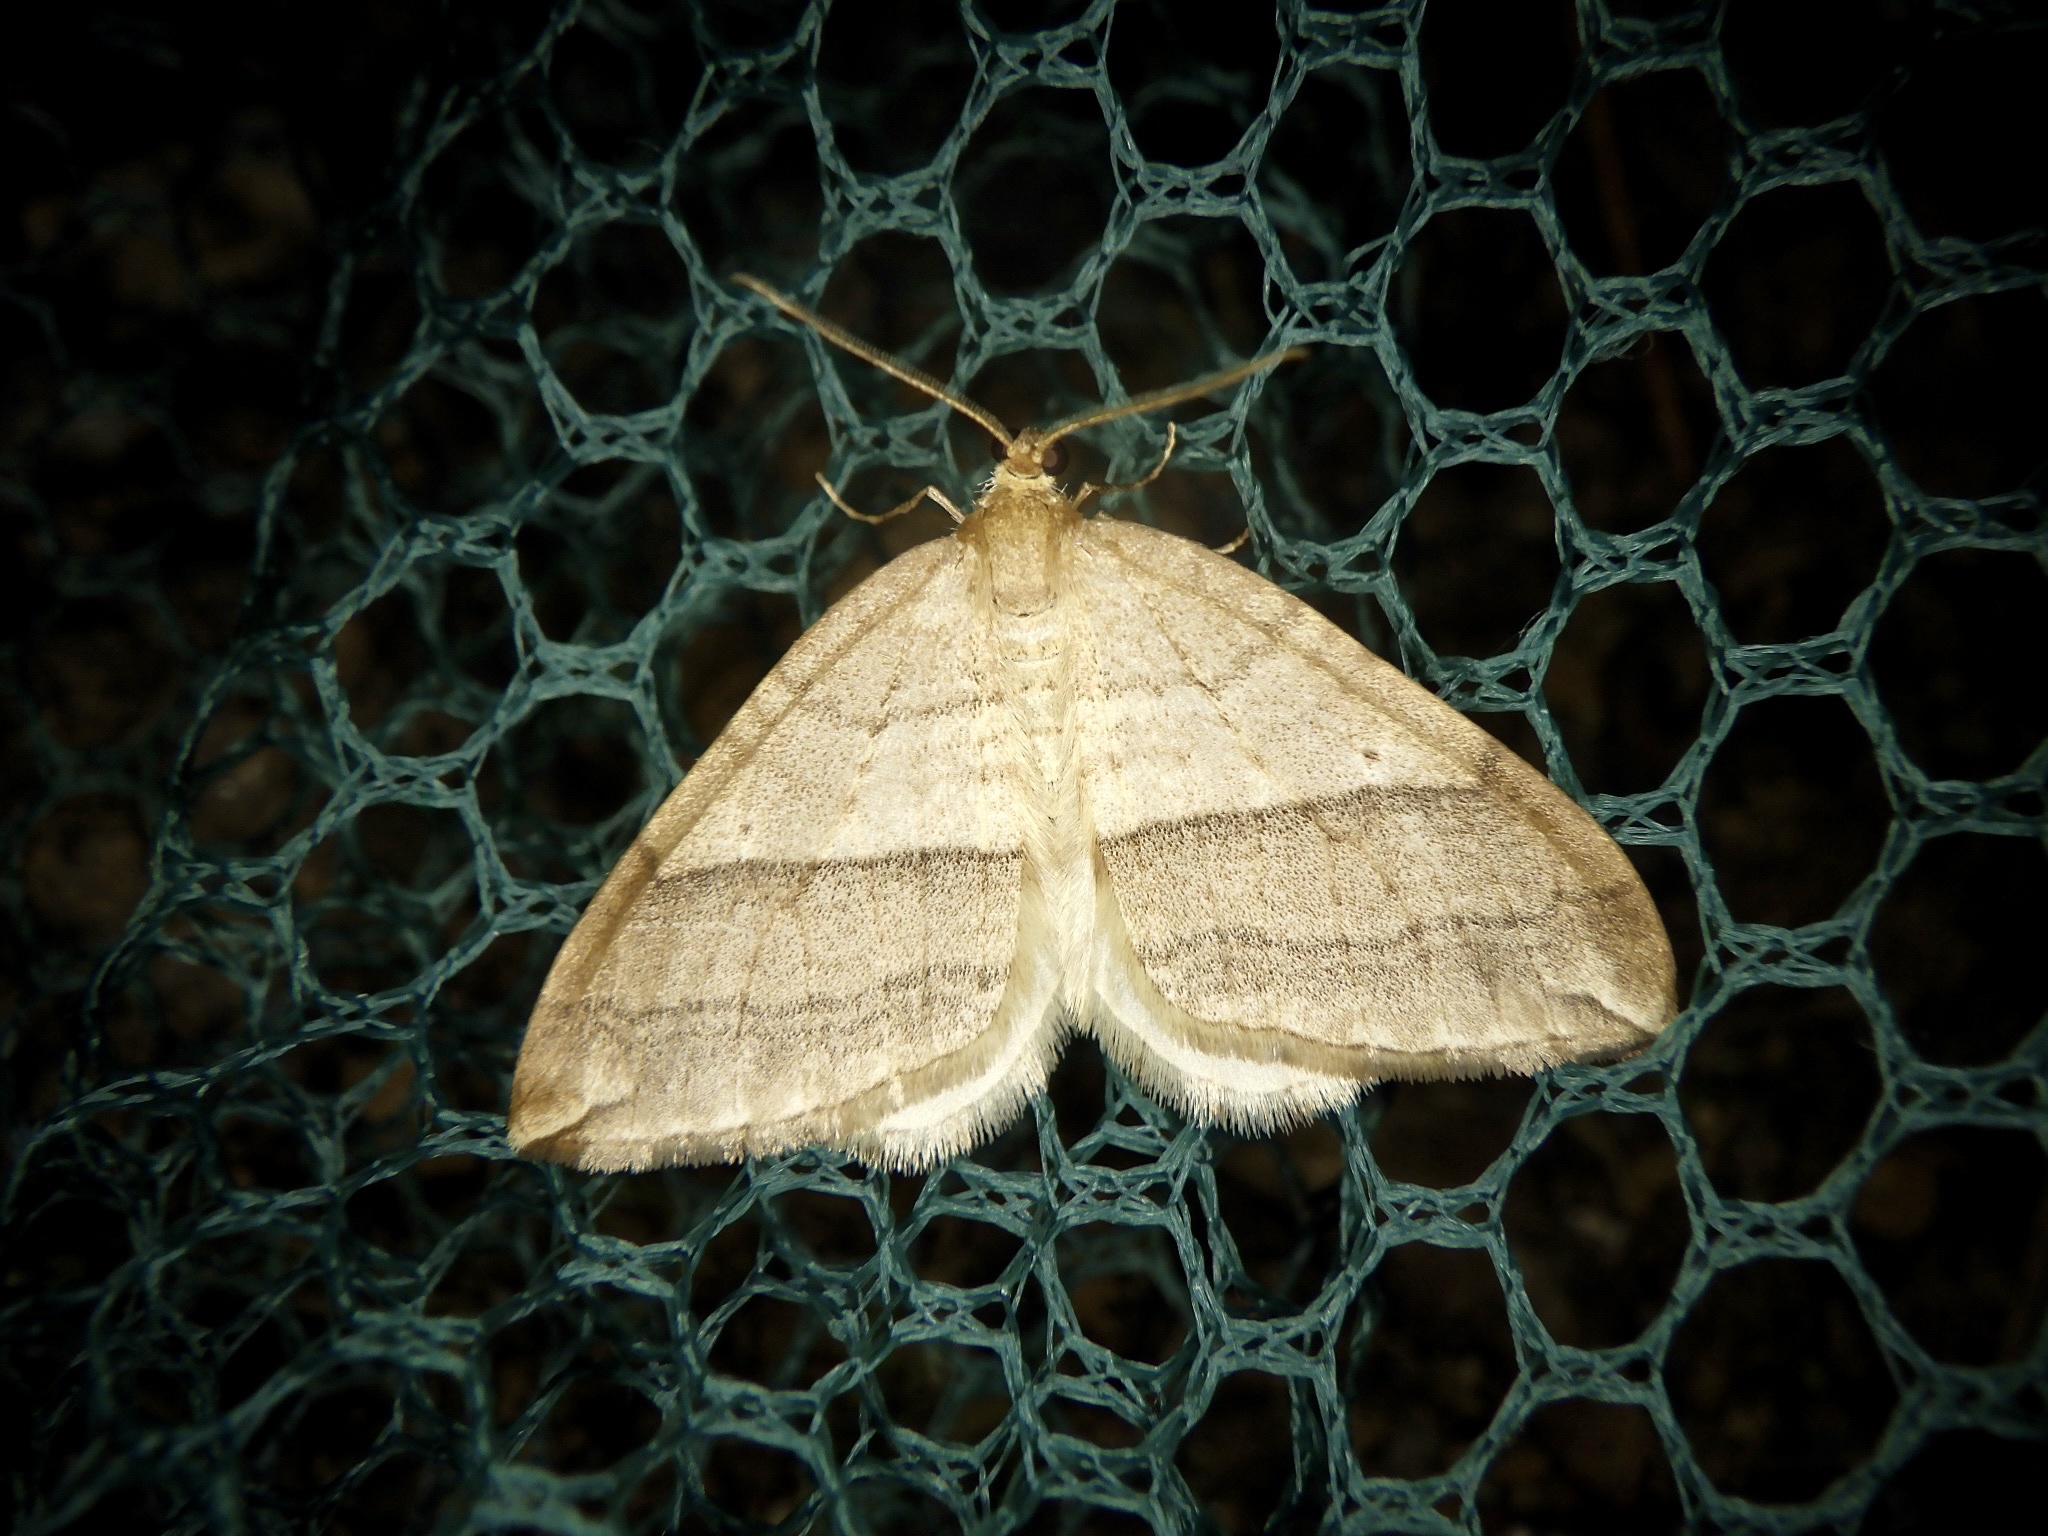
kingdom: Animalia
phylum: Arthropoda
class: Insecta
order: Lepidoptera
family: Geometridae
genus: Nothoporinia
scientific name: Nothoporinia mediolineata
